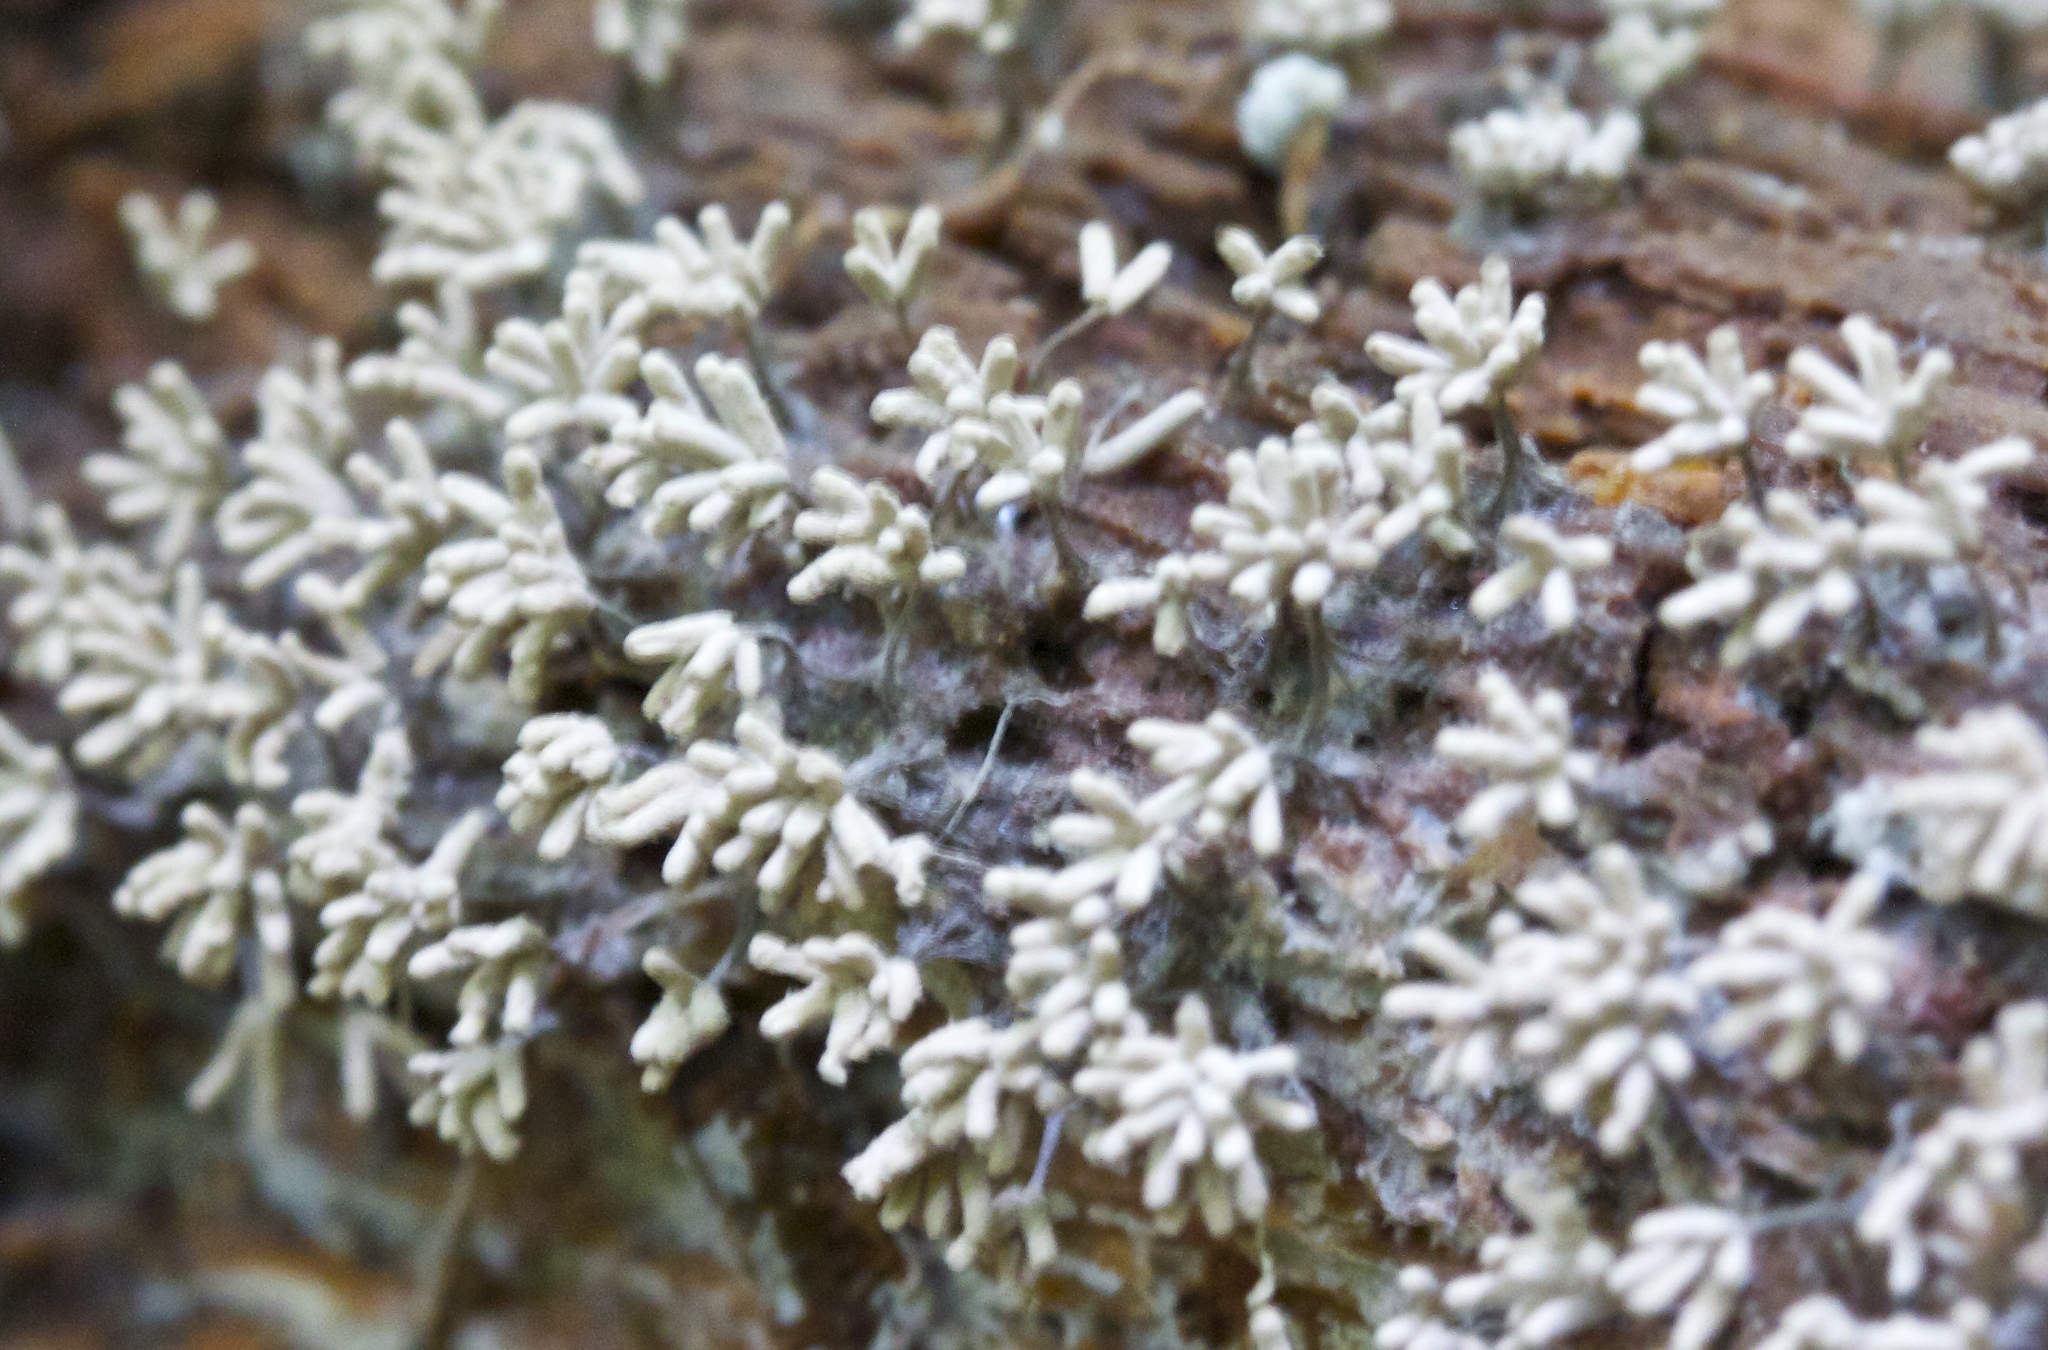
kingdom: Protozoa
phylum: Mycetozoa
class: Myxomycetes
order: Trichiales
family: Arcyriaceae
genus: Arcyria
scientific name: Arcyria cinerea
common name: White carnival candy slime mold
